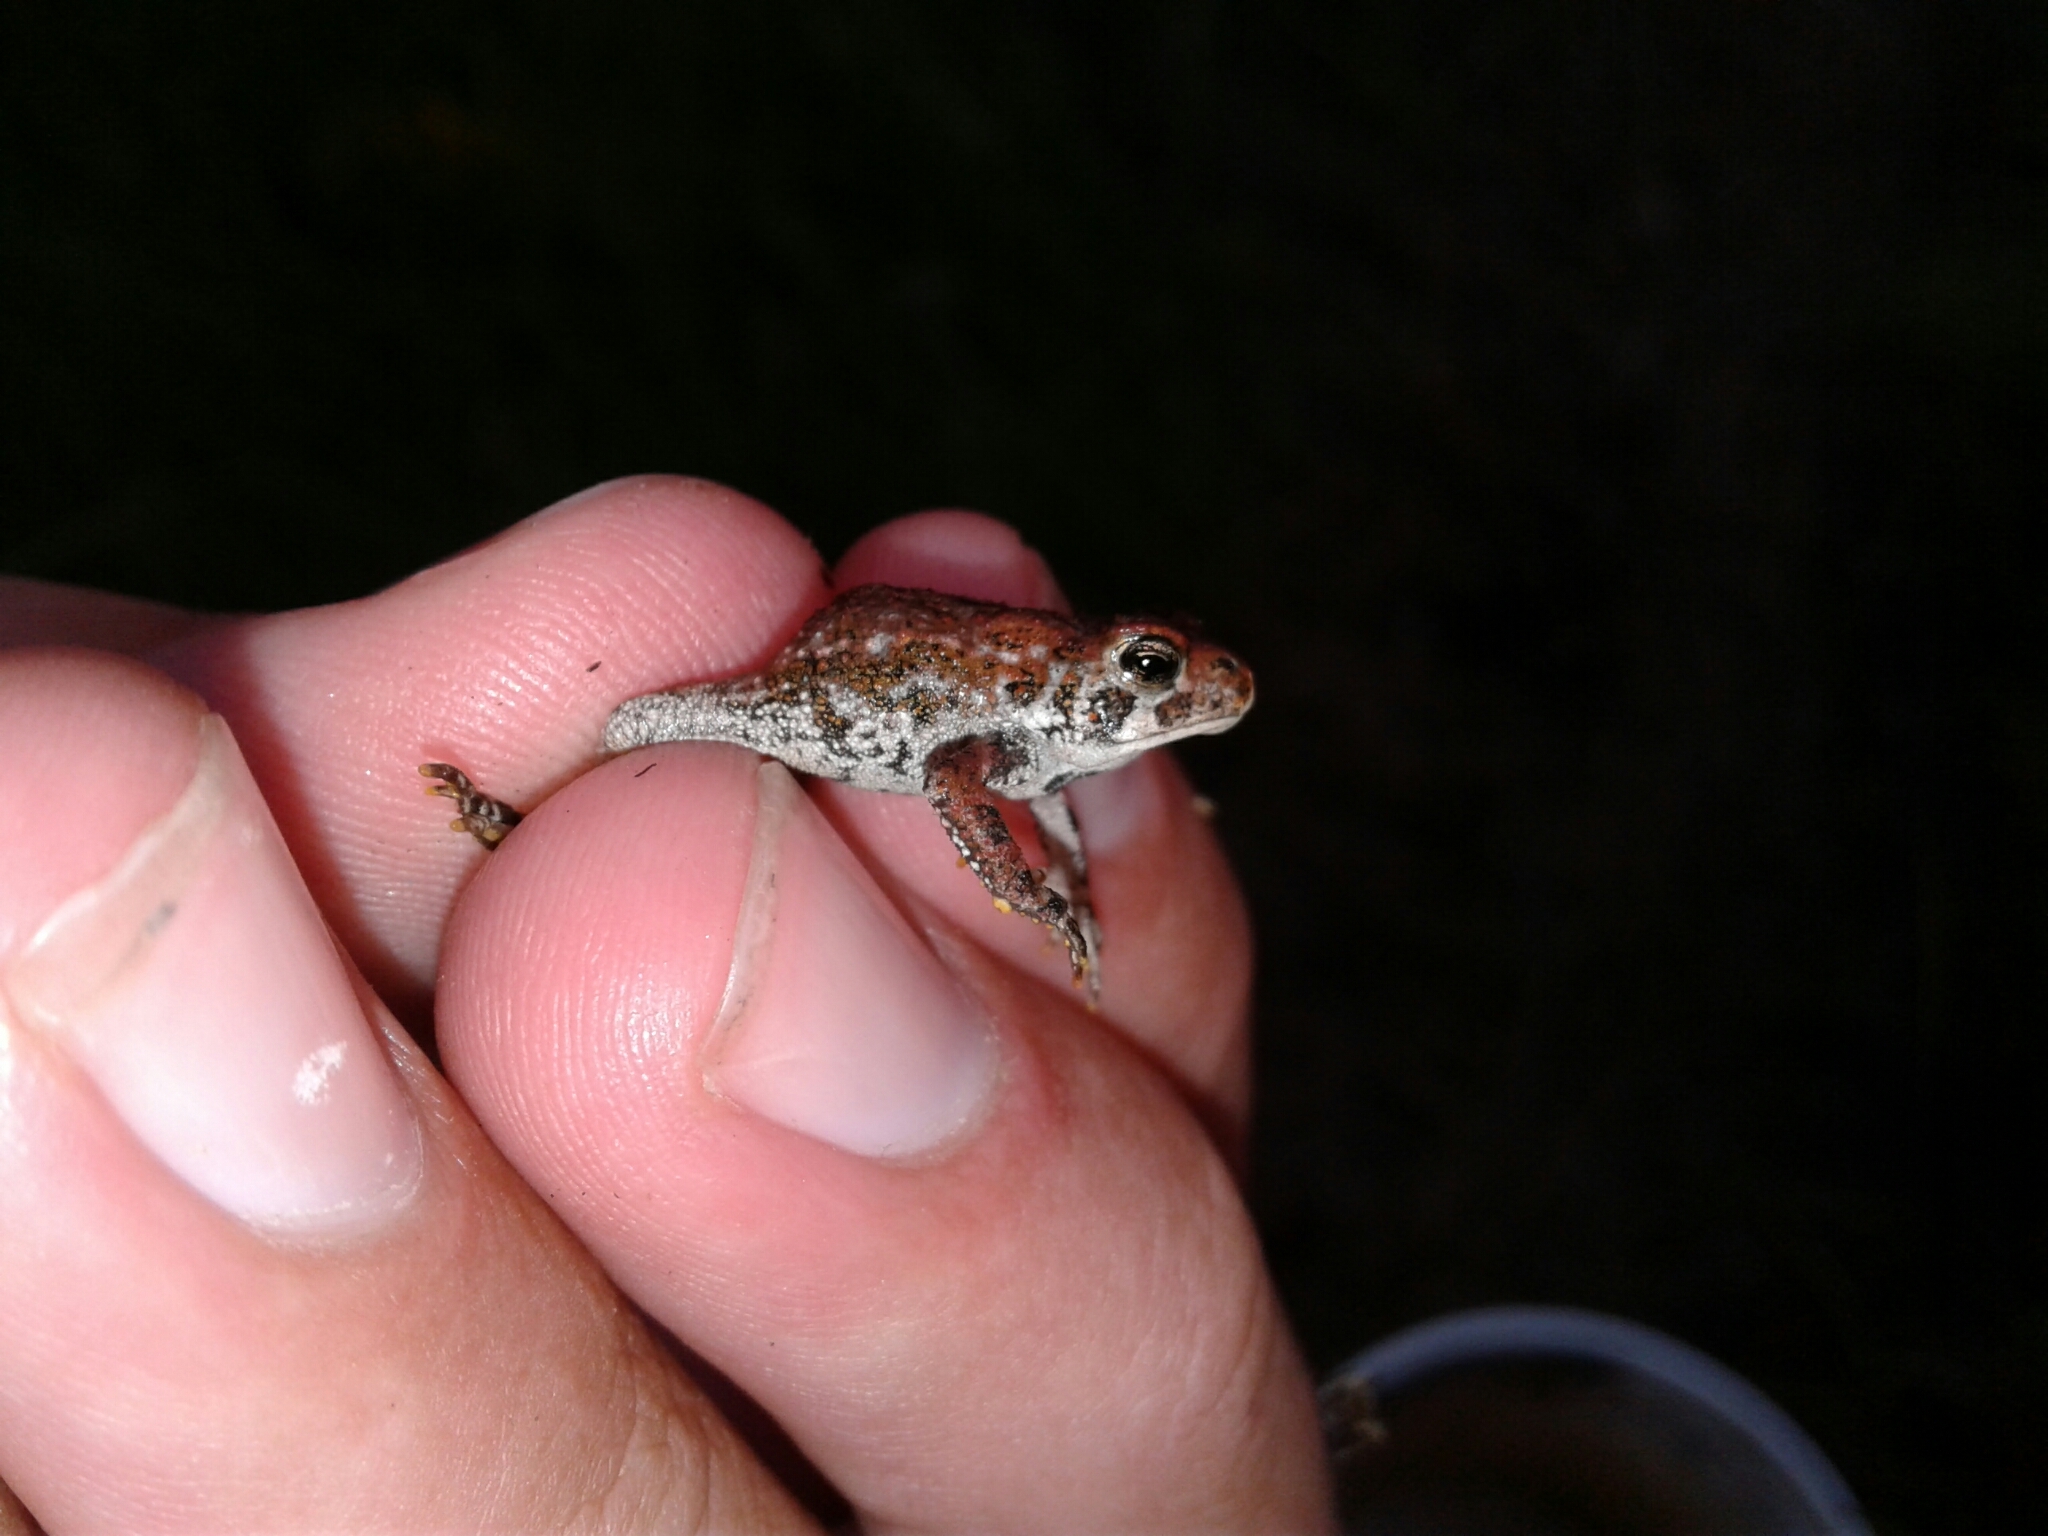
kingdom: Animalia
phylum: Chordata
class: Amphibia
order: Anura
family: Bufonidae
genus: Anaxyrus
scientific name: Anaxyrus americanus
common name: American toad
